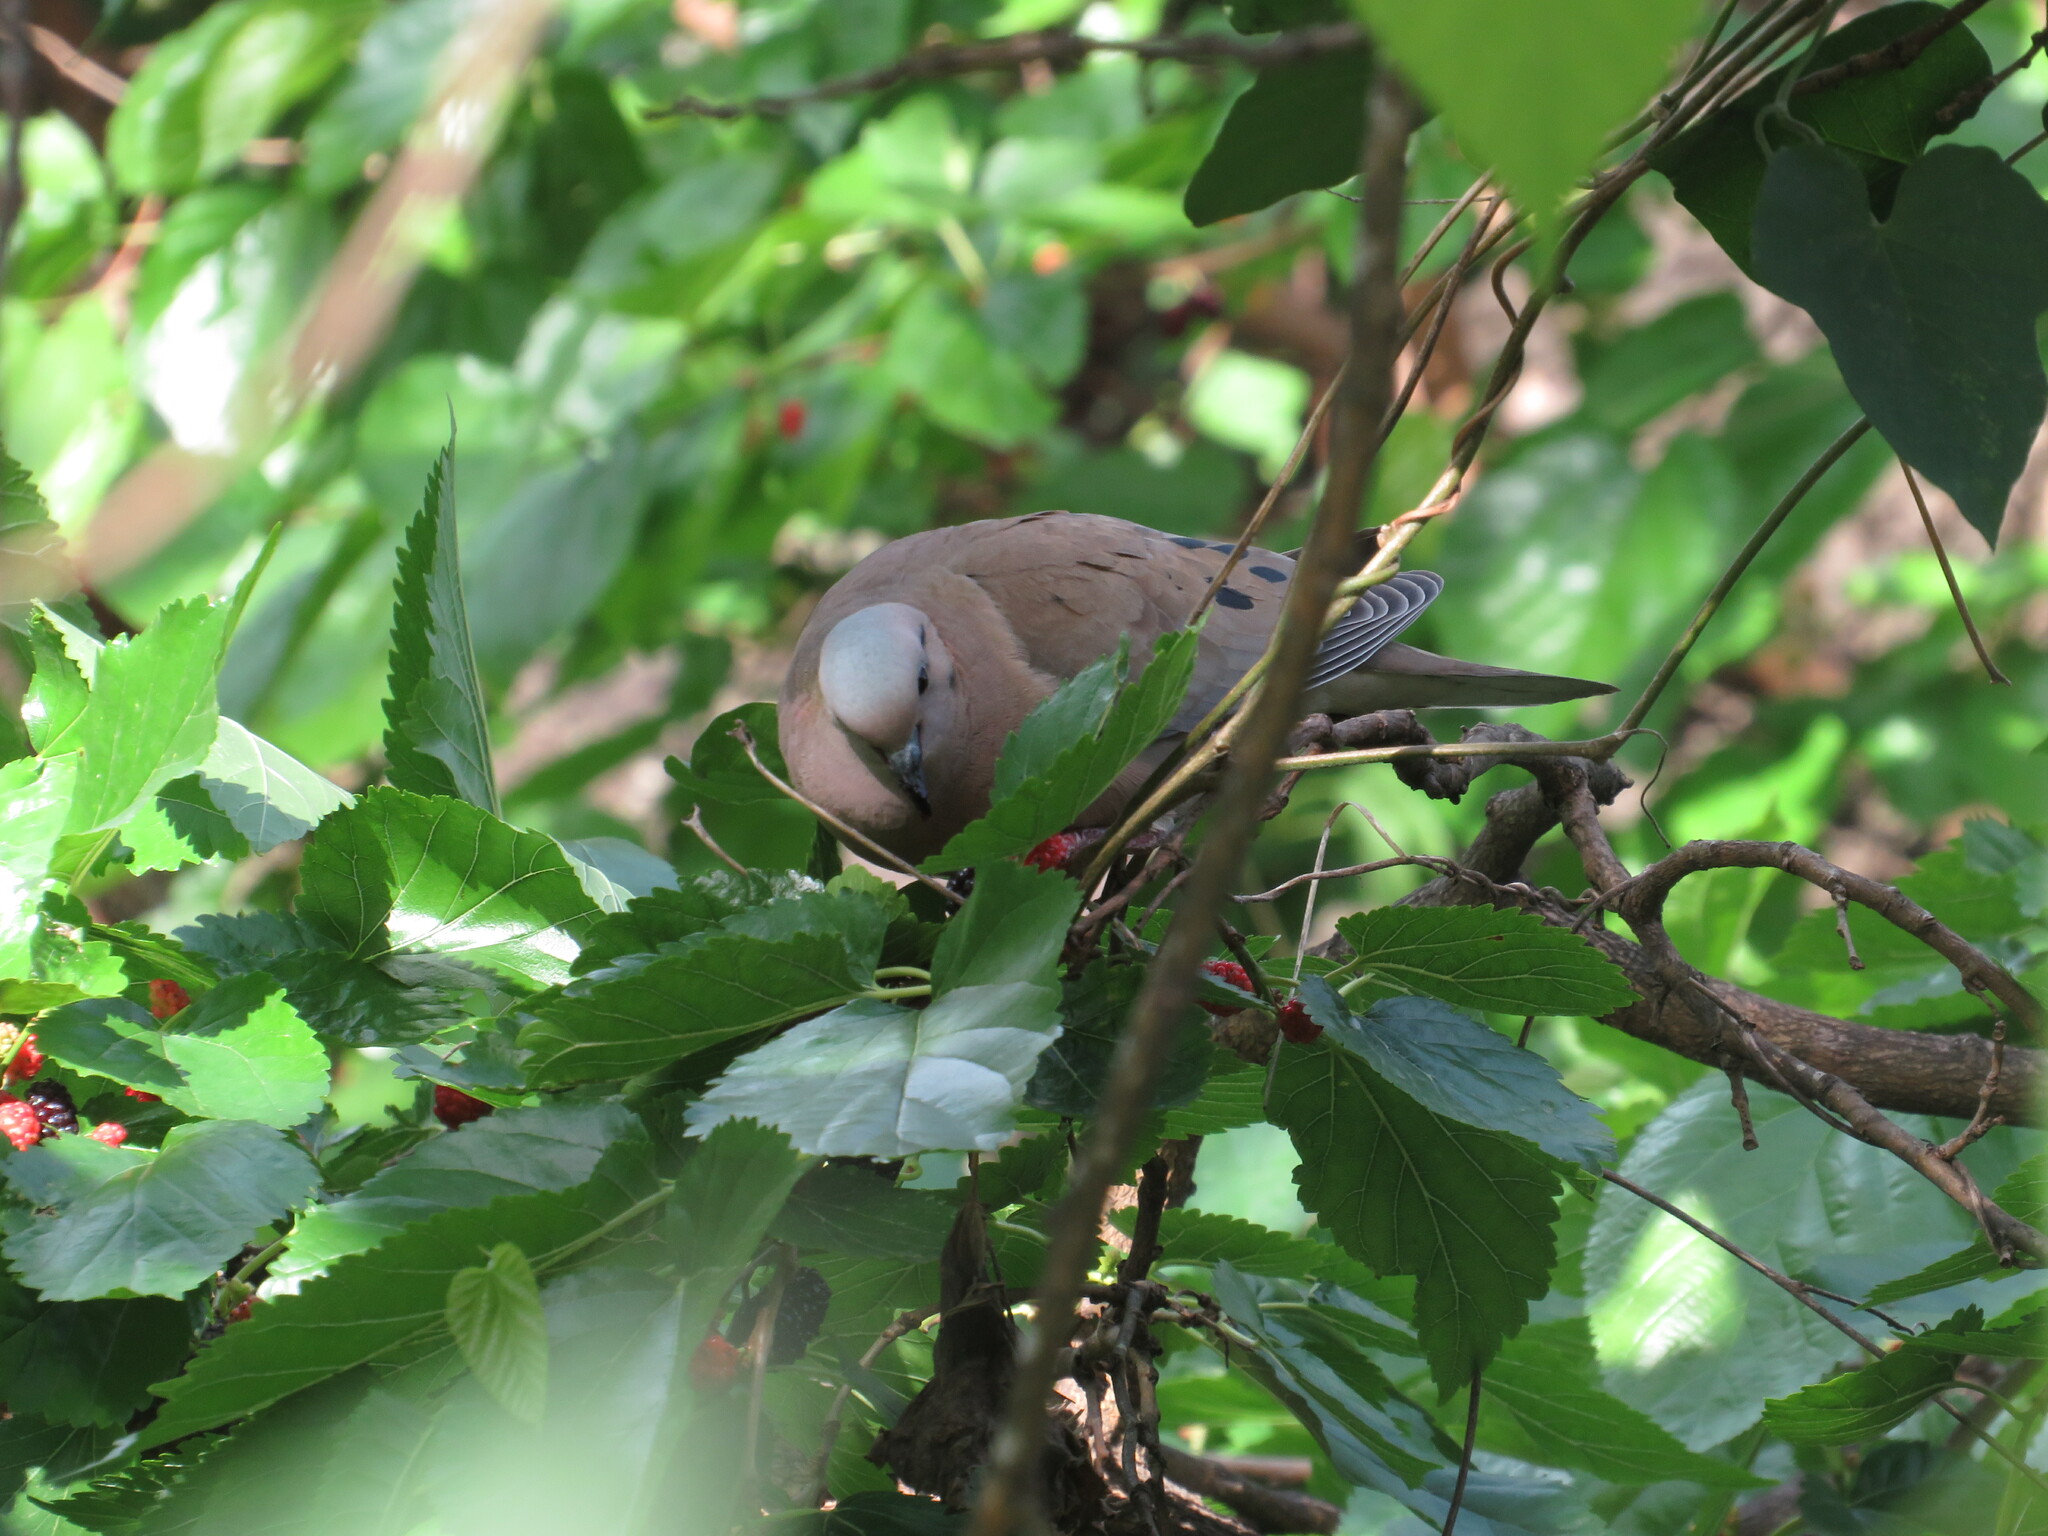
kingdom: Animalia
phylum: Chordata
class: Aves
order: Columbiformes
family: Columbidae
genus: Zenaida
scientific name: Zenaida auriculata
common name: Eared dove
